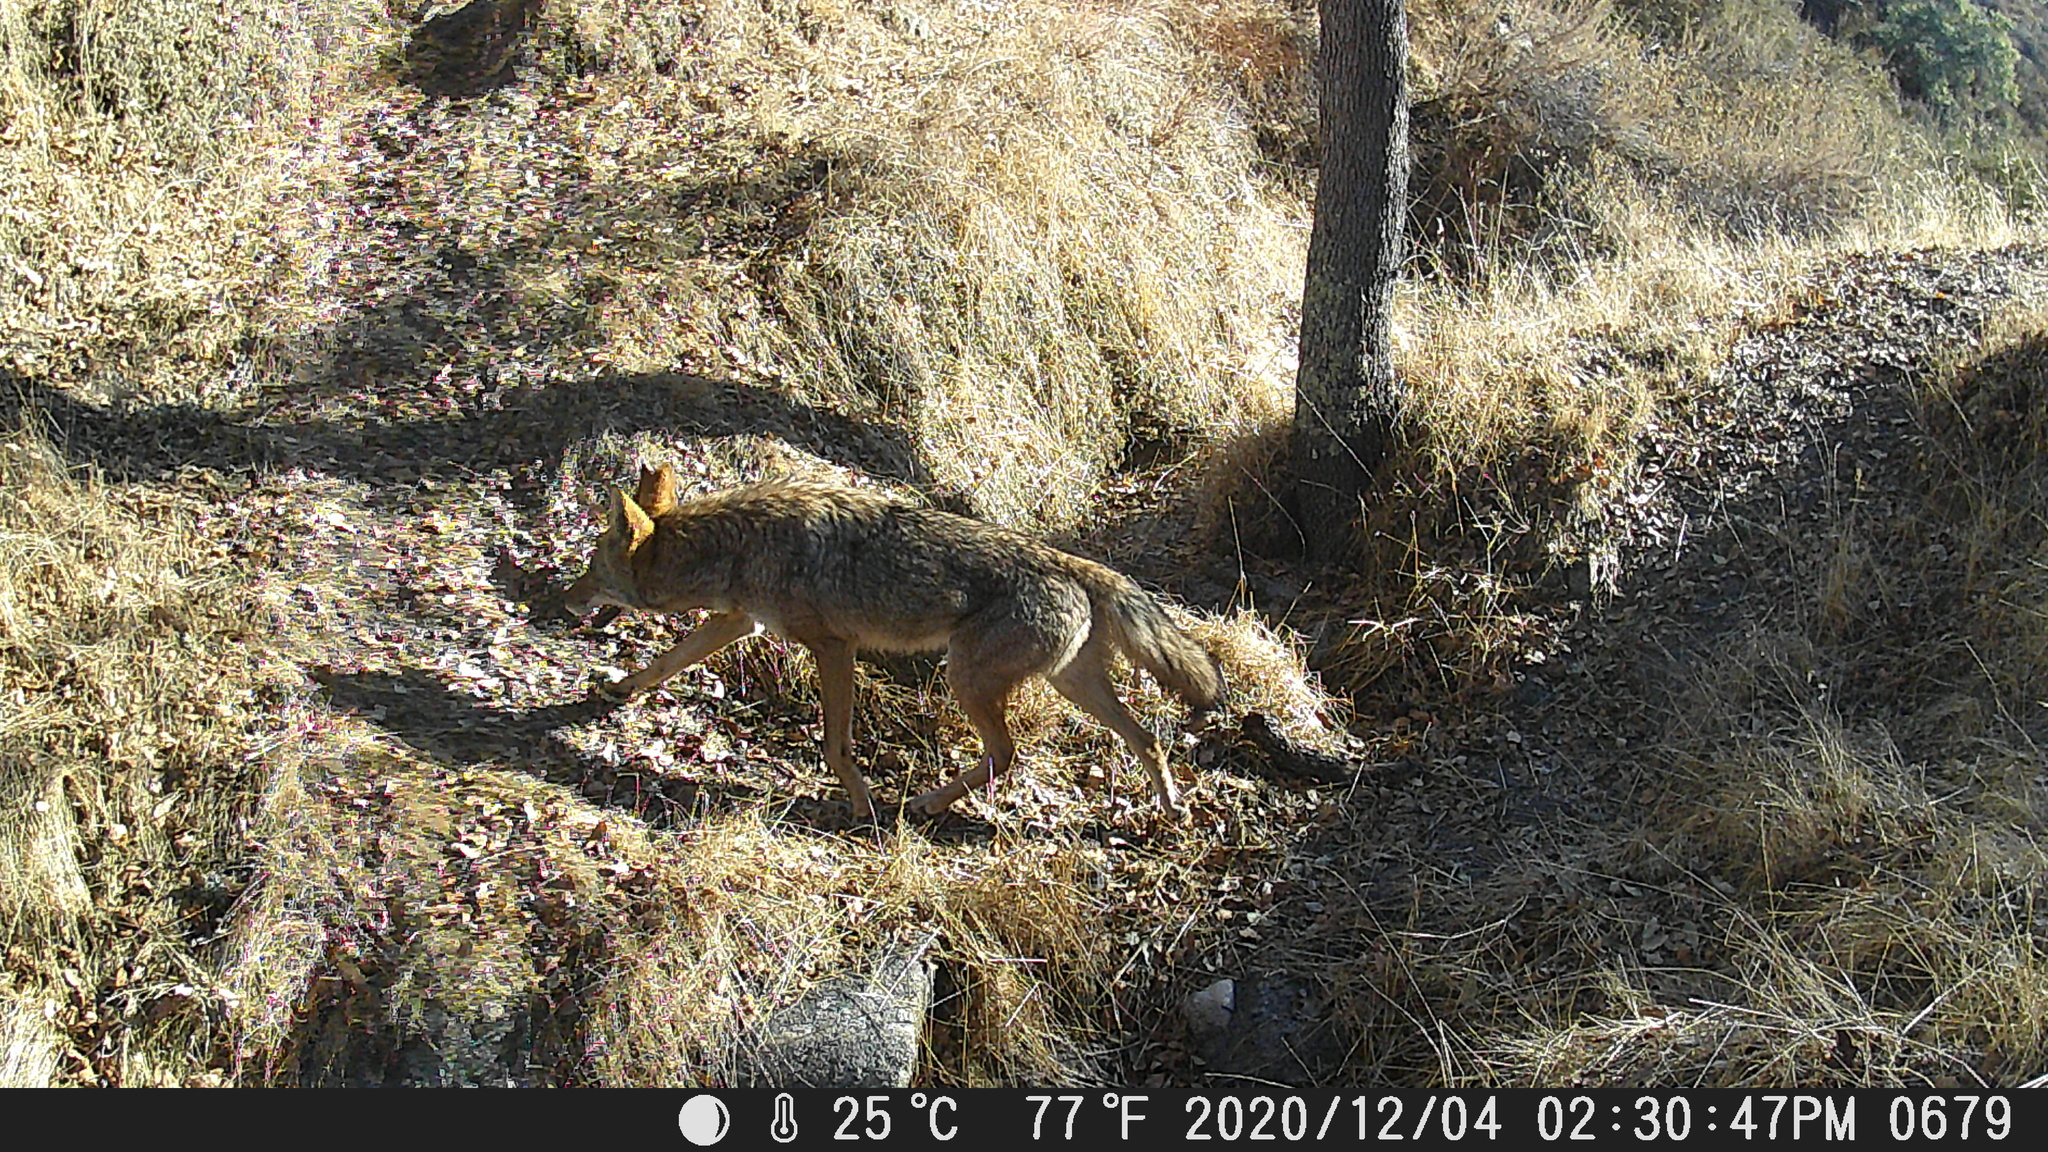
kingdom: Animalia
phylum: Chordata
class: Mammalia
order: Carnivora
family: Canidae
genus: Canis
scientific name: Canis latrans
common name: Coyote
